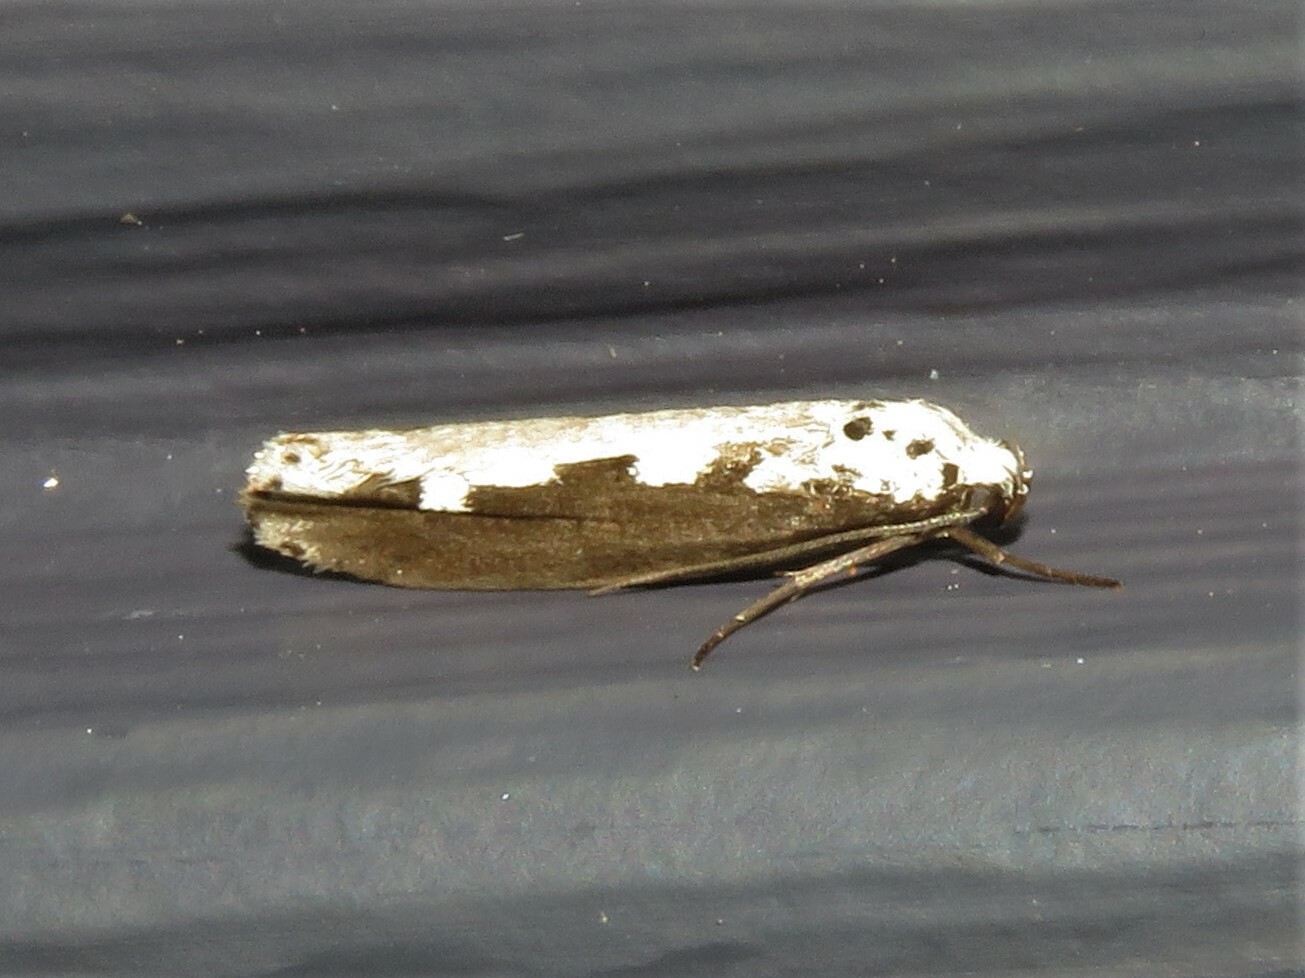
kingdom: Animalia
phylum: Arthropoda
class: Insecta
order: Lepidoptera
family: Ethmiidae
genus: Ethmia
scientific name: Ethmia bipunctella
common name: Bordered ermel
